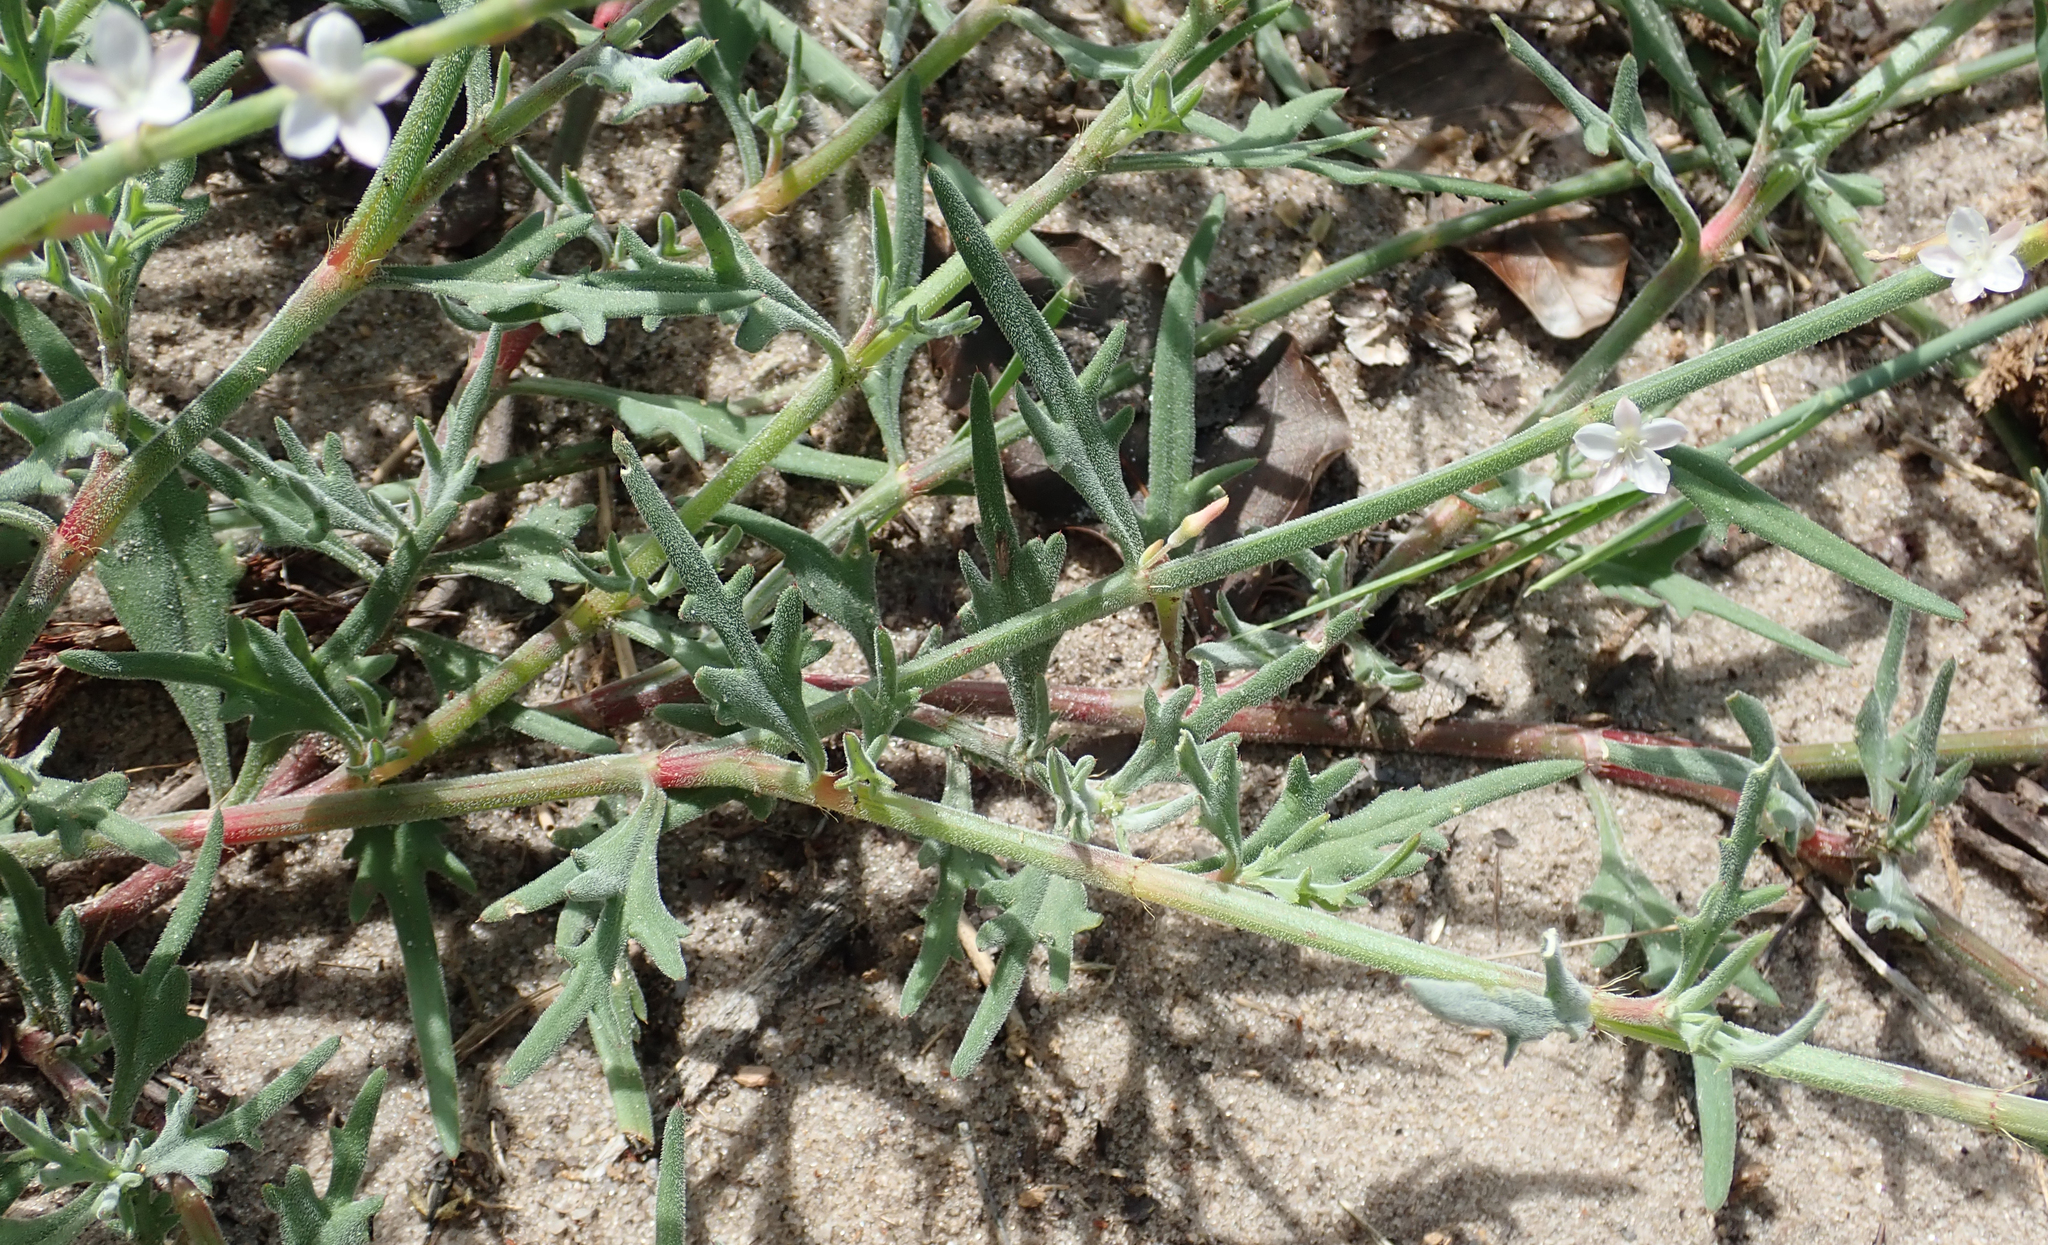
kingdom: Plantae
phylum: Tracheophyta
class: Magnoliopsida
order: Caryophyllales
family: Polygonaceae
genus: Oxygonum
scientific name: Oxygonum alatum
